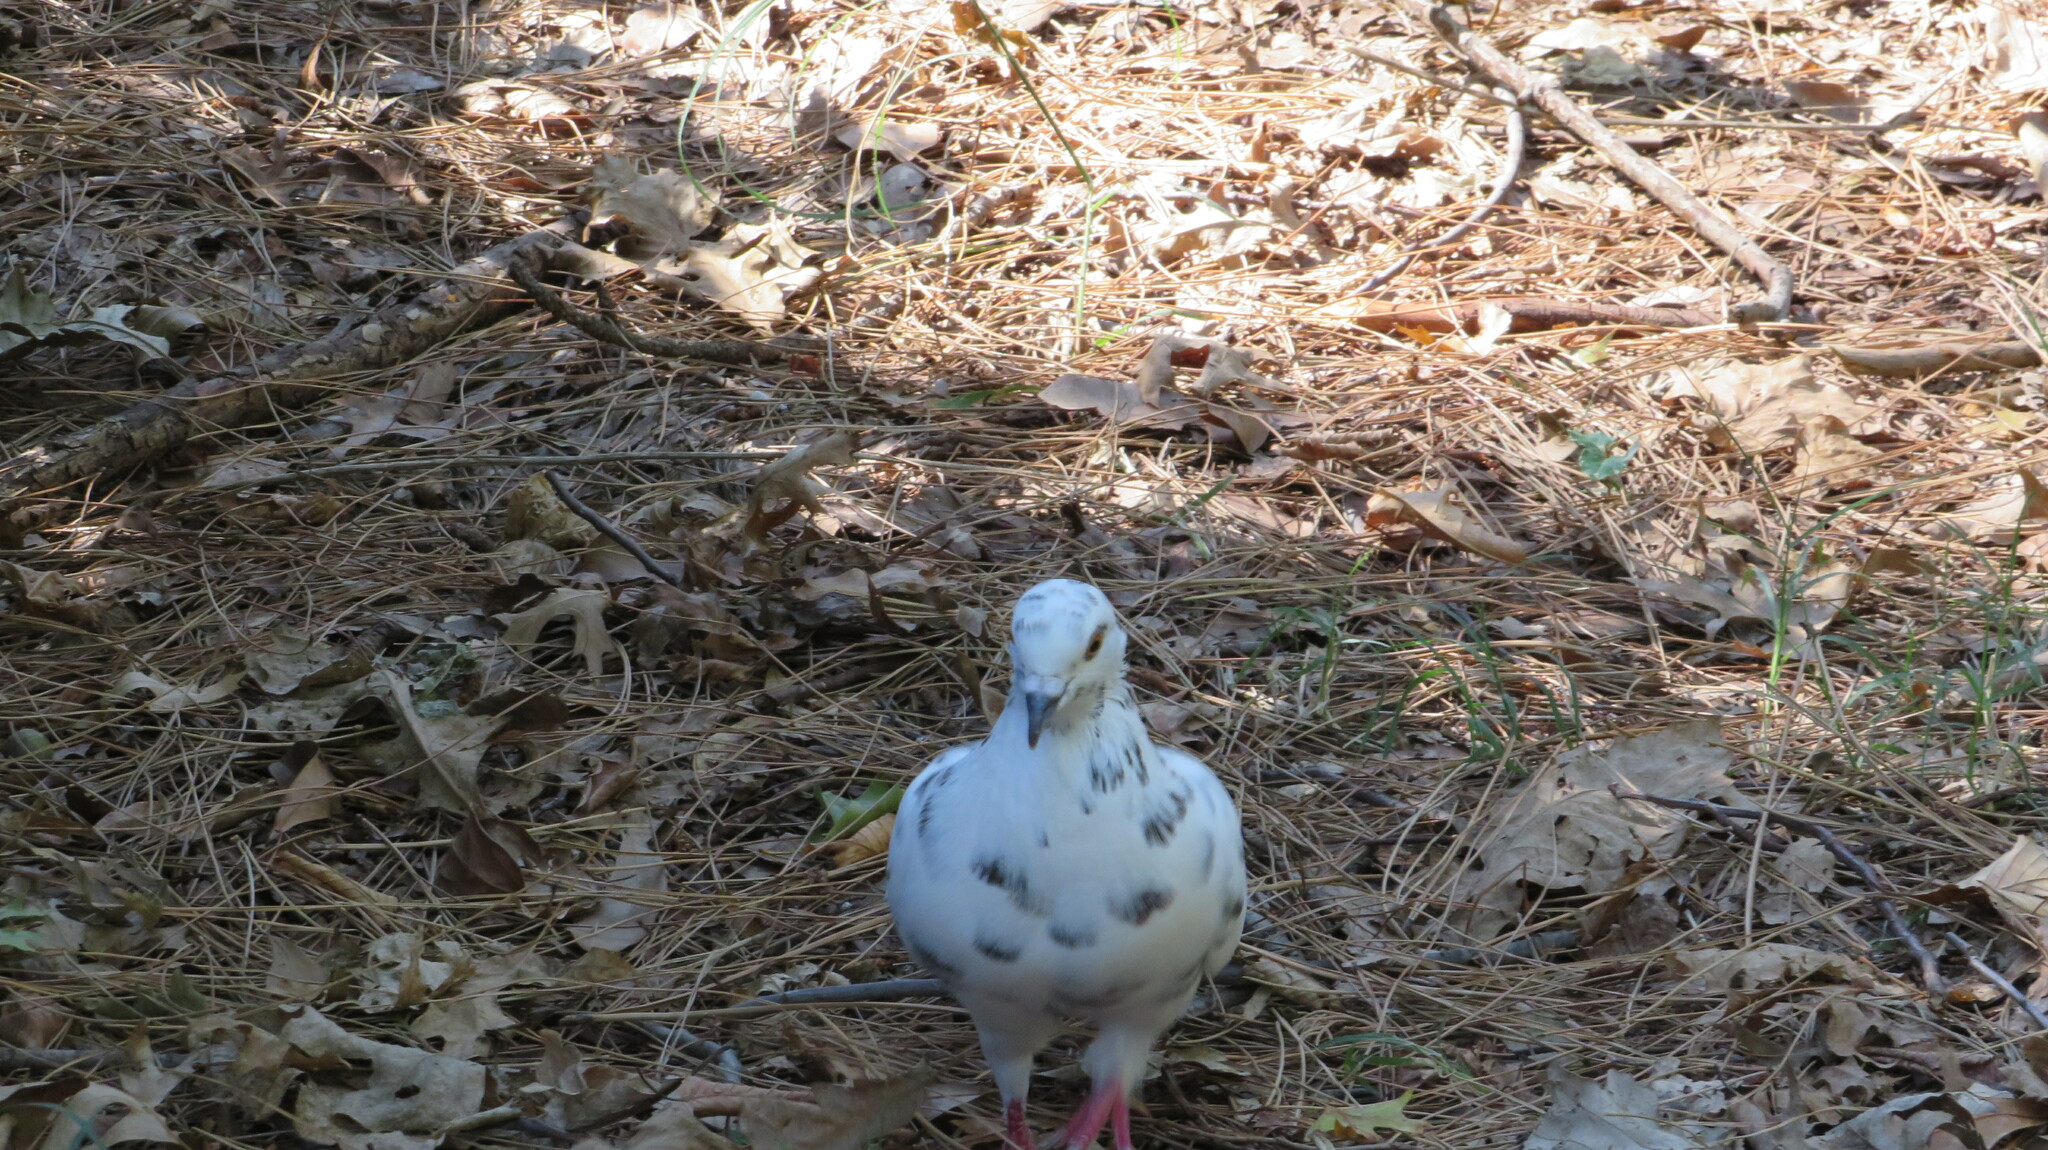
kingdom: Animalia
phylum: Chordata
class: Aves
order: Columbiformes
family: Columbidae
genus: Columba
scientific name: Columba livia
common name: Rock pigeon
